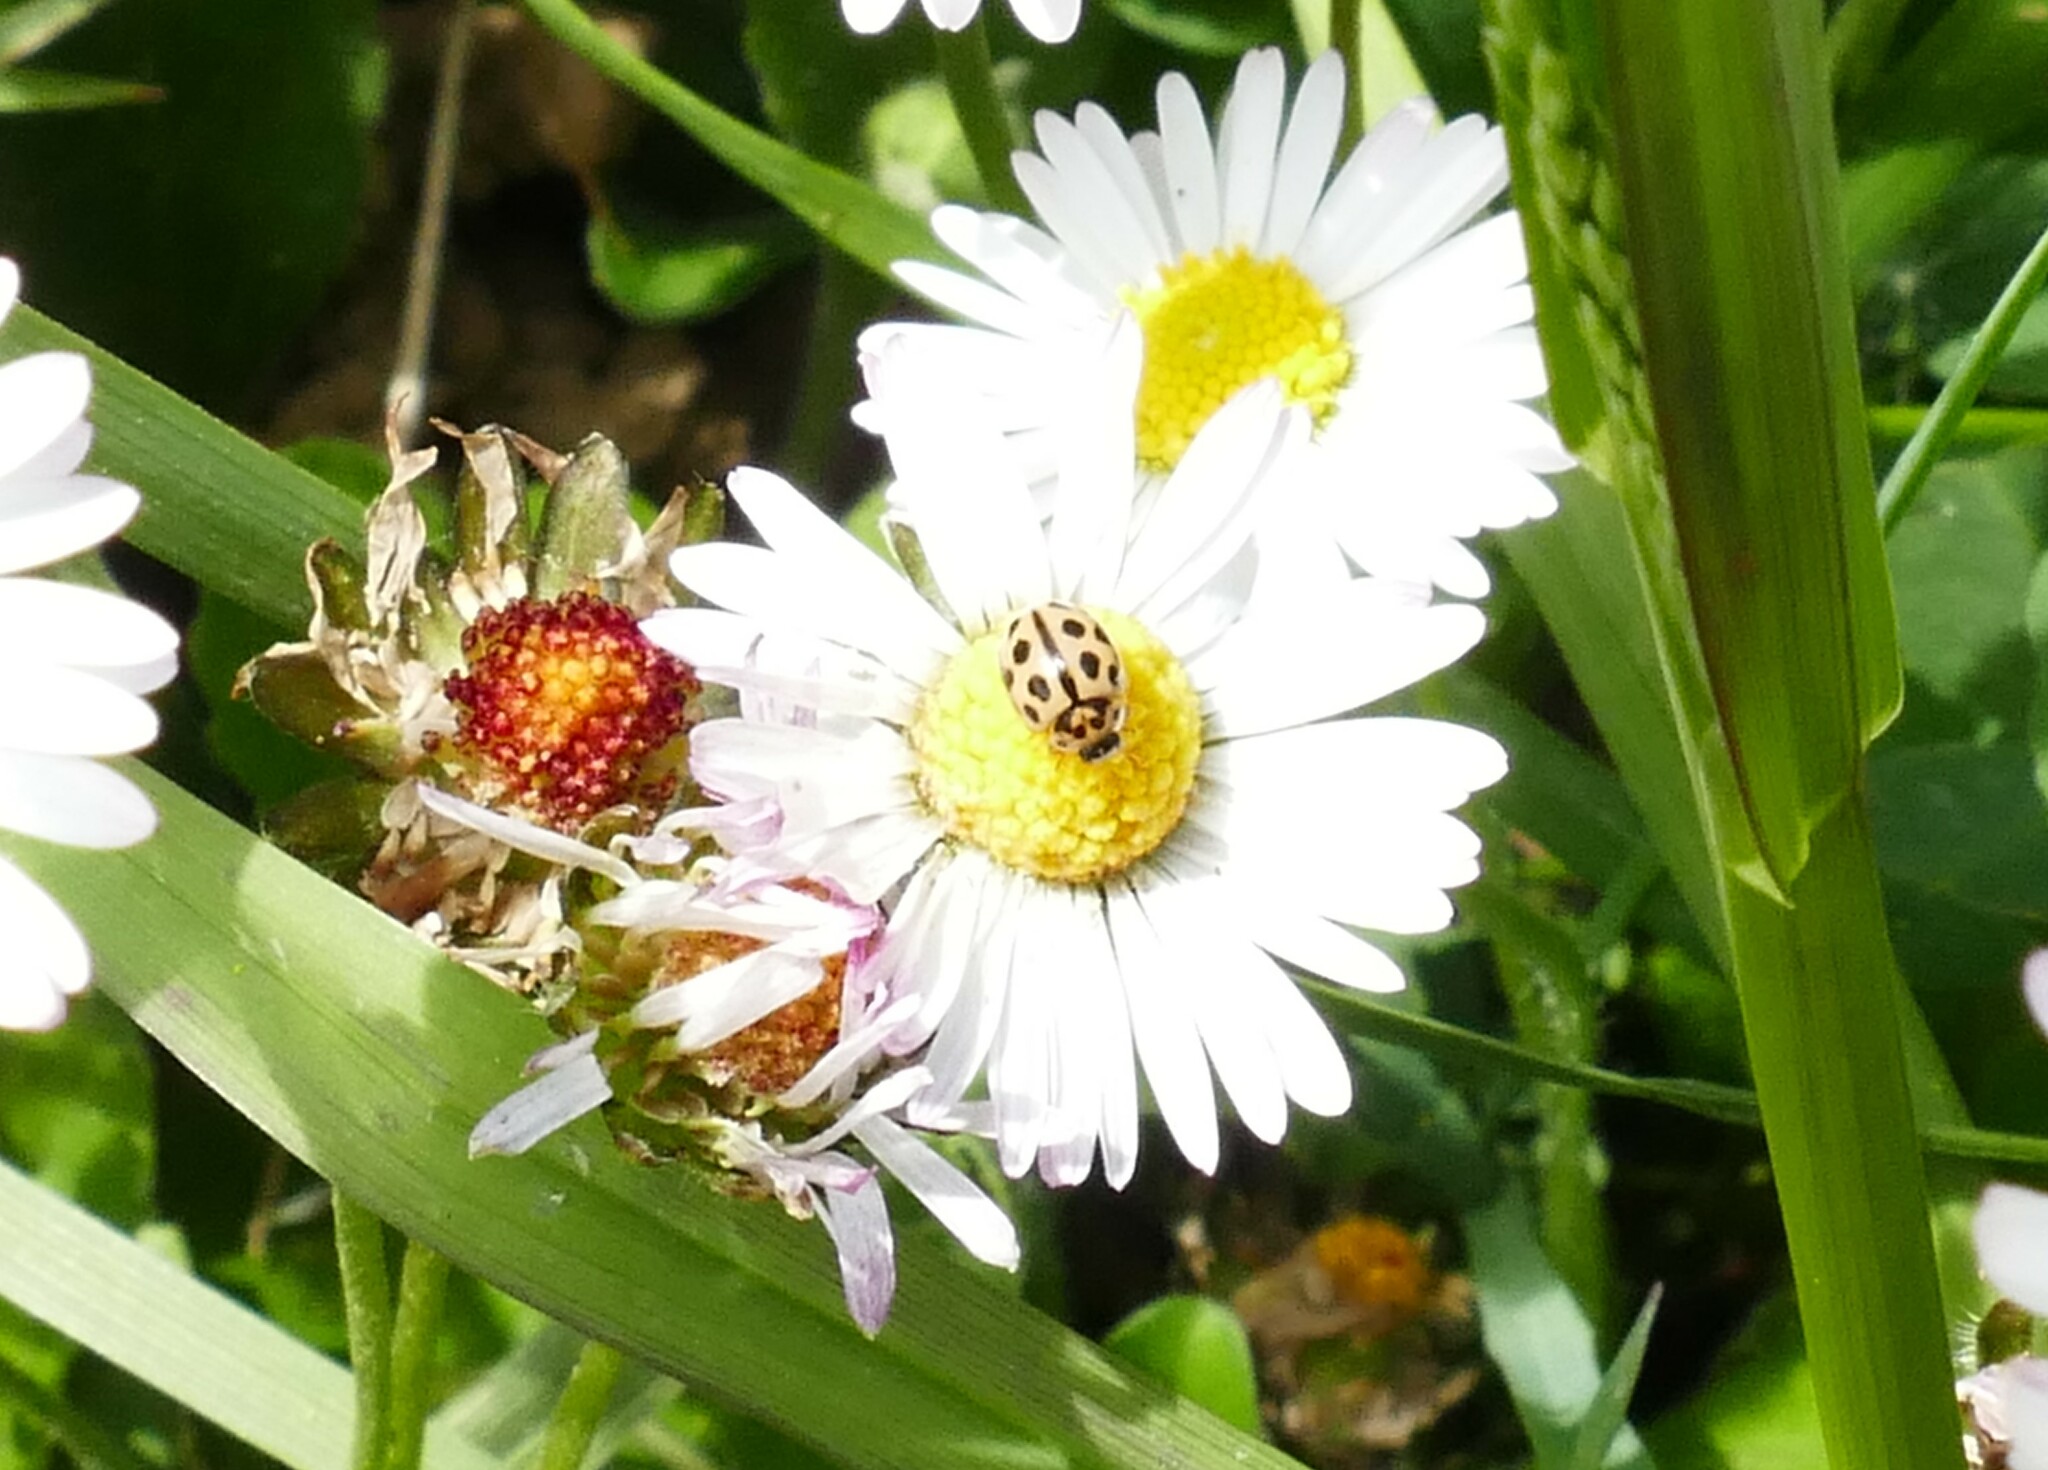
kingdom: Animalia
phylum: Arthropoda
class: Insecta
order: Coleoptera
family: Coccinellidae
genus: Tytthaspis
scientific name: Tytthaspis sedecimpunctata
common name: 16-spot ladybird
